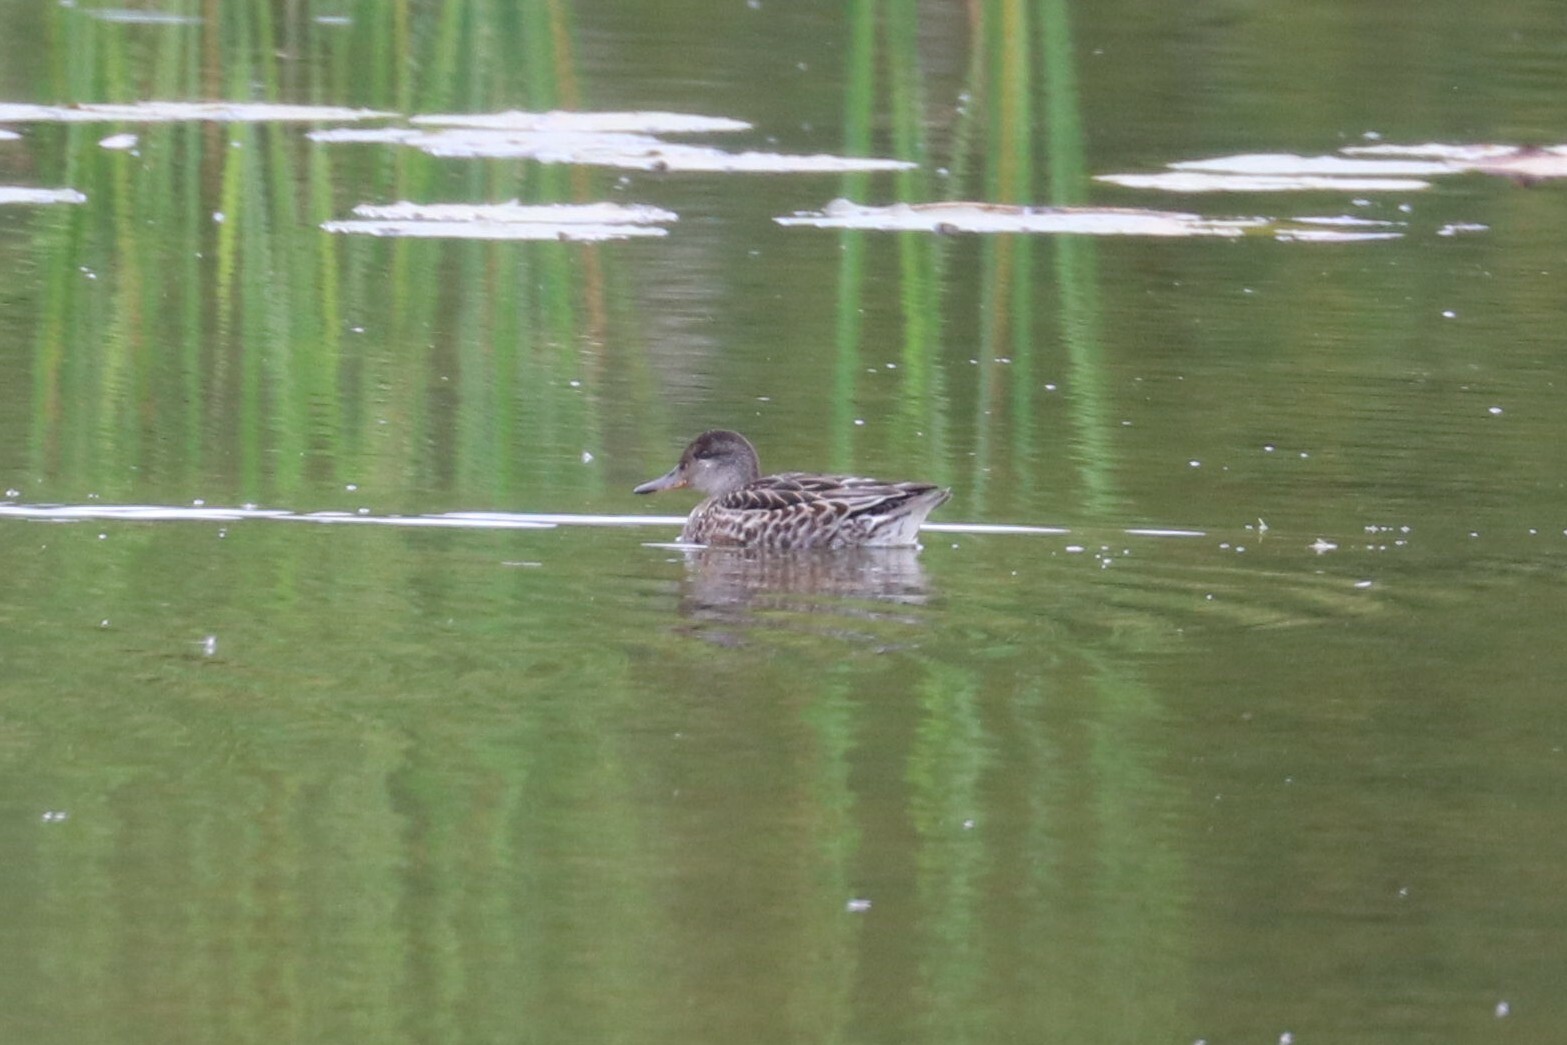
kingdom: Animalia
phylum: Chordata
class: Aves
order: Anseriformes
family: Anatidae
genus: Anas
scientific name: Anas crecca
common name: Eurasian teal
